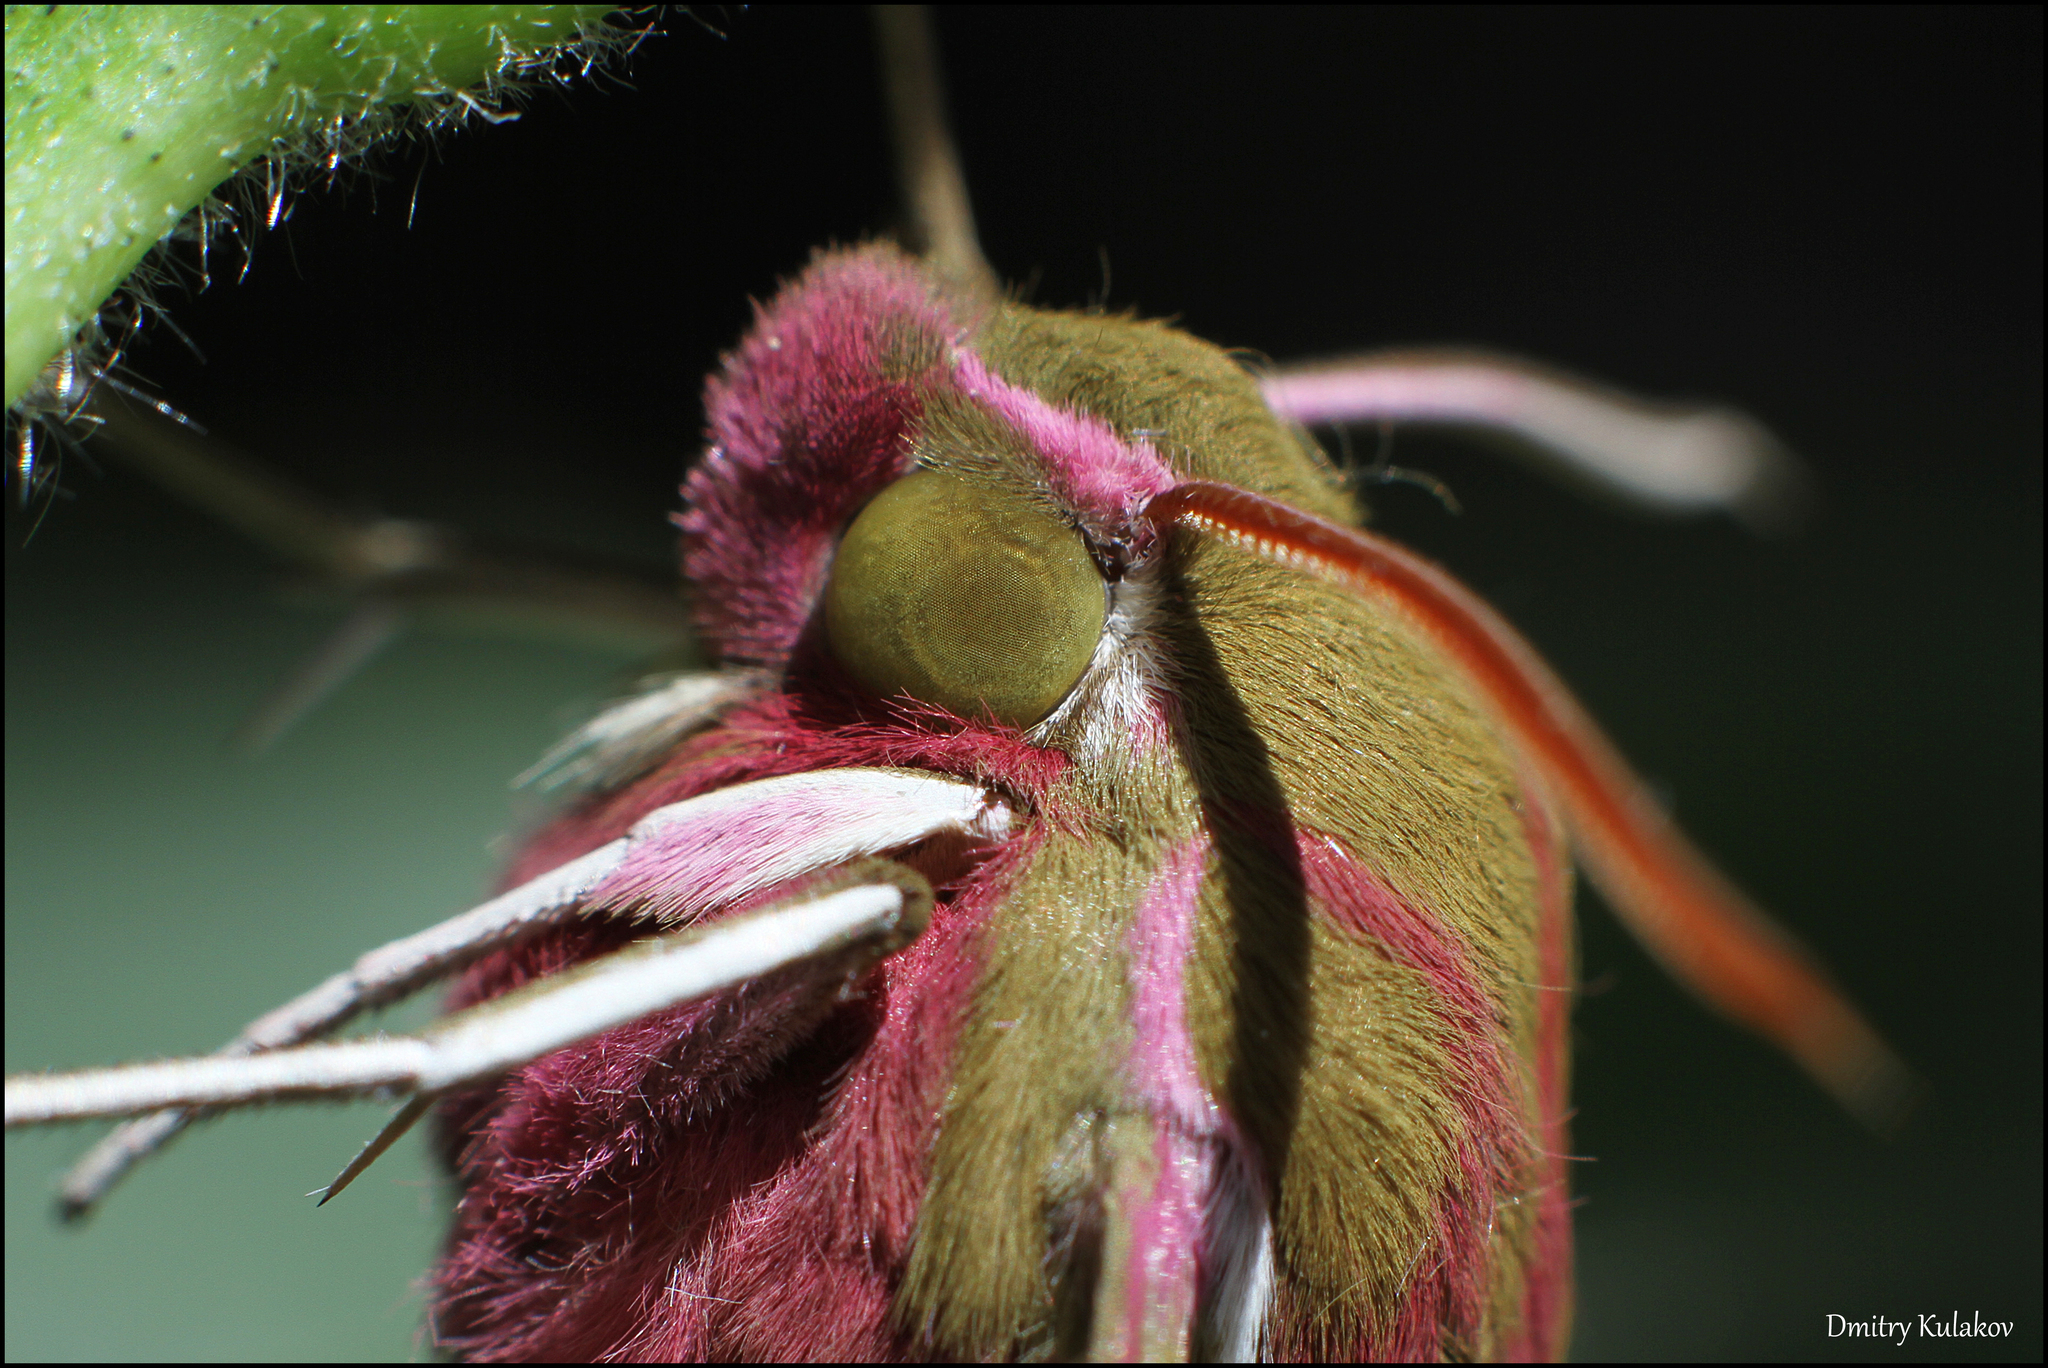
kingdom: Animalia
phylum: Arthropoda
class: Insecta
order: Lepidoptera
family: Sphingidae
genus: Deilephila
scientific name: Deilephila elpenor
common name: Elephant hawk-moth
